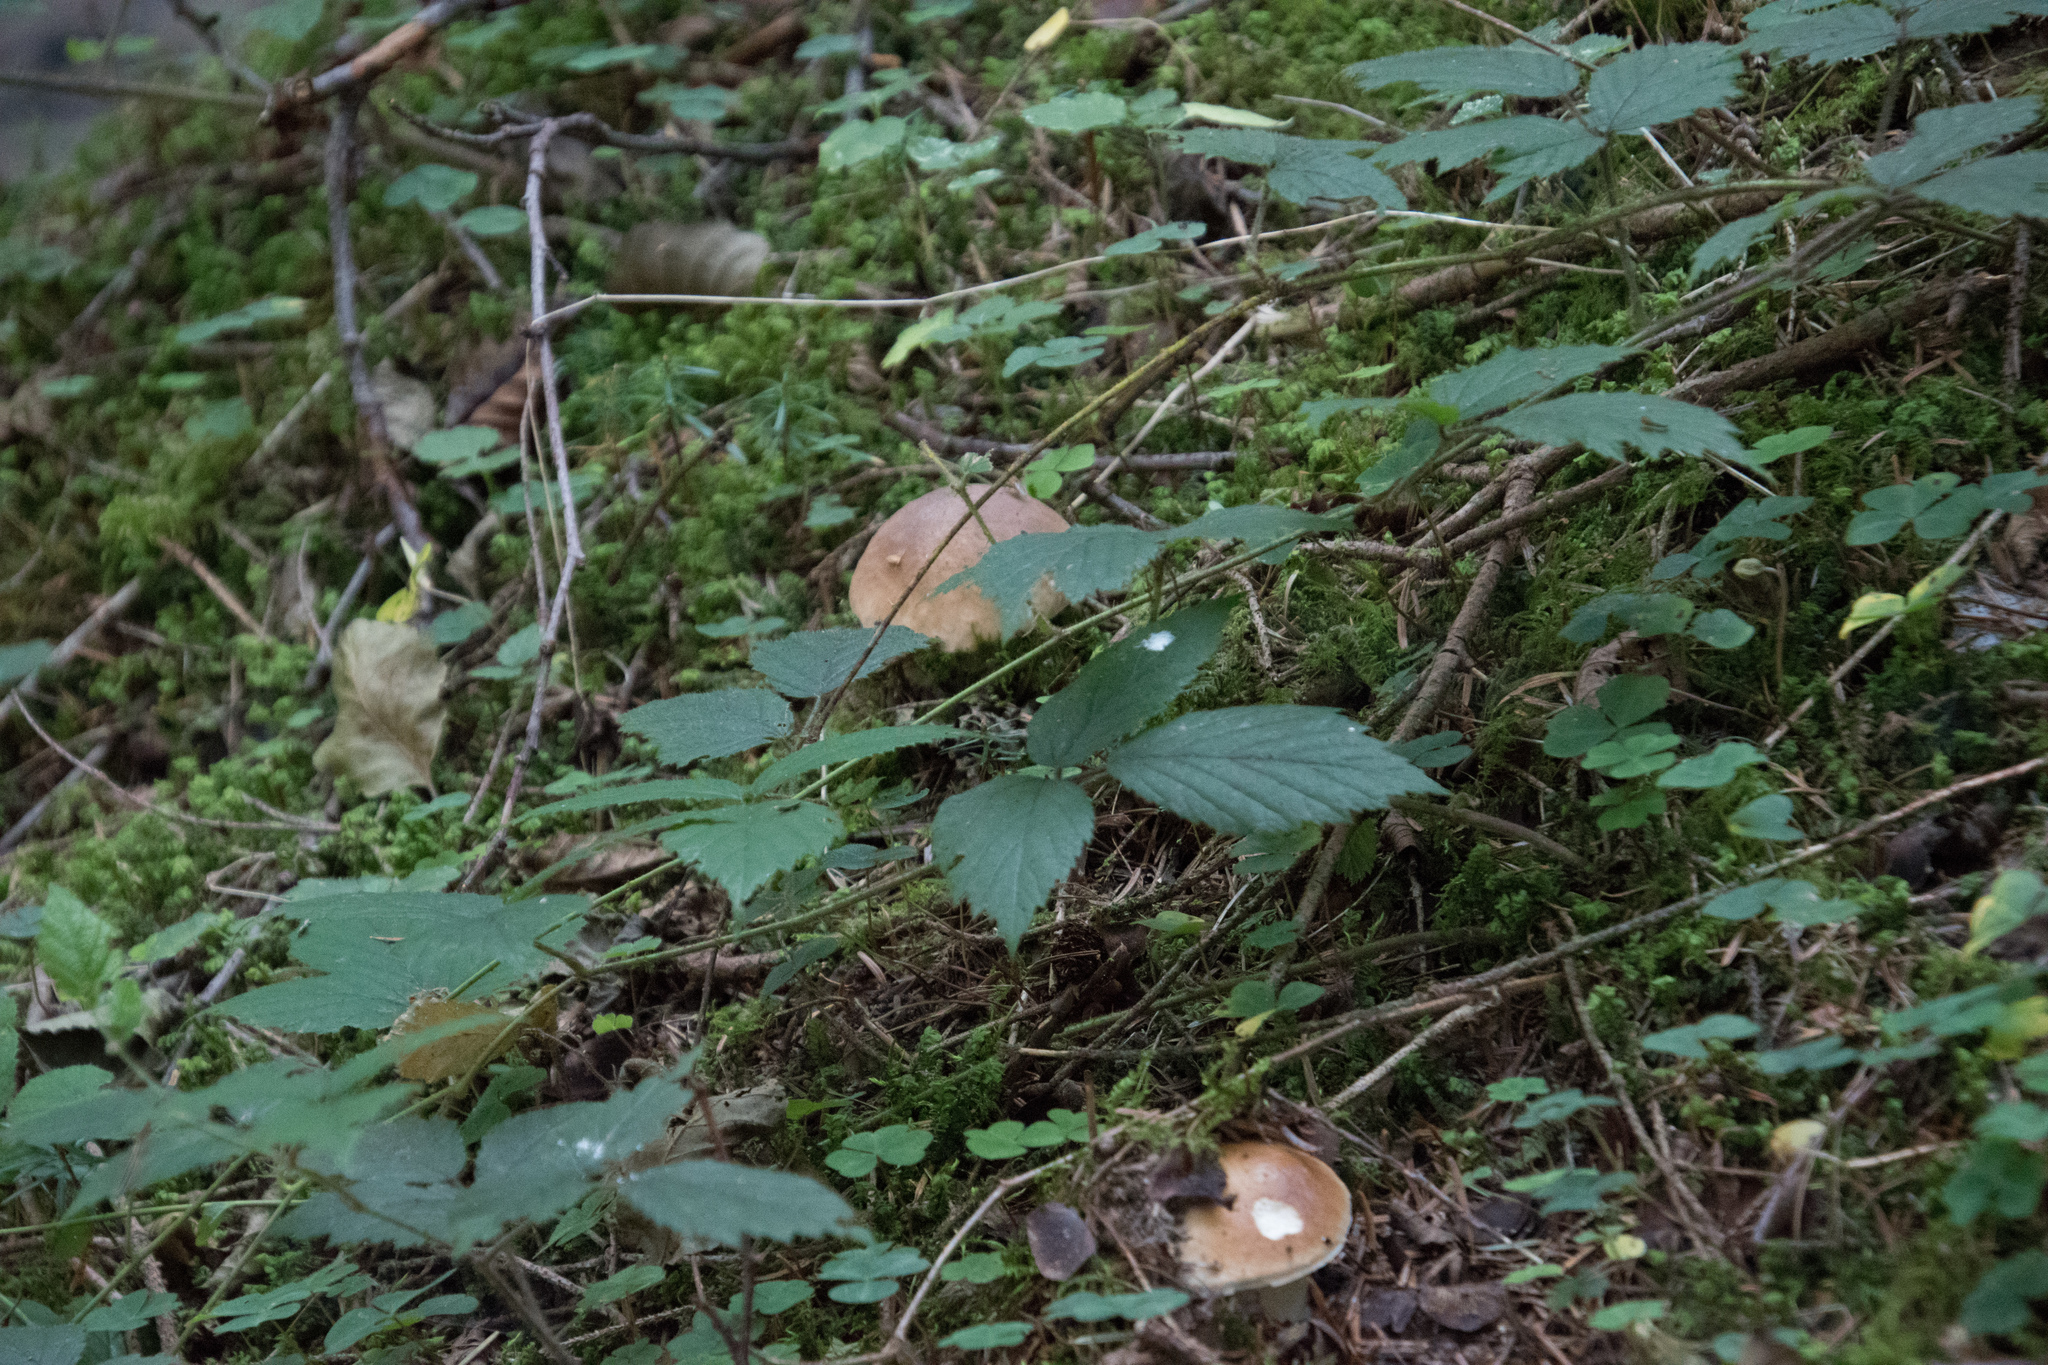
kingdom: Fungi
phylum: Basidiomycota
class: Agaricomycetes
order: Boletales
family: Boletaceae
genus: Boletus
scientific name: Boletus edulis
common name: Cep
